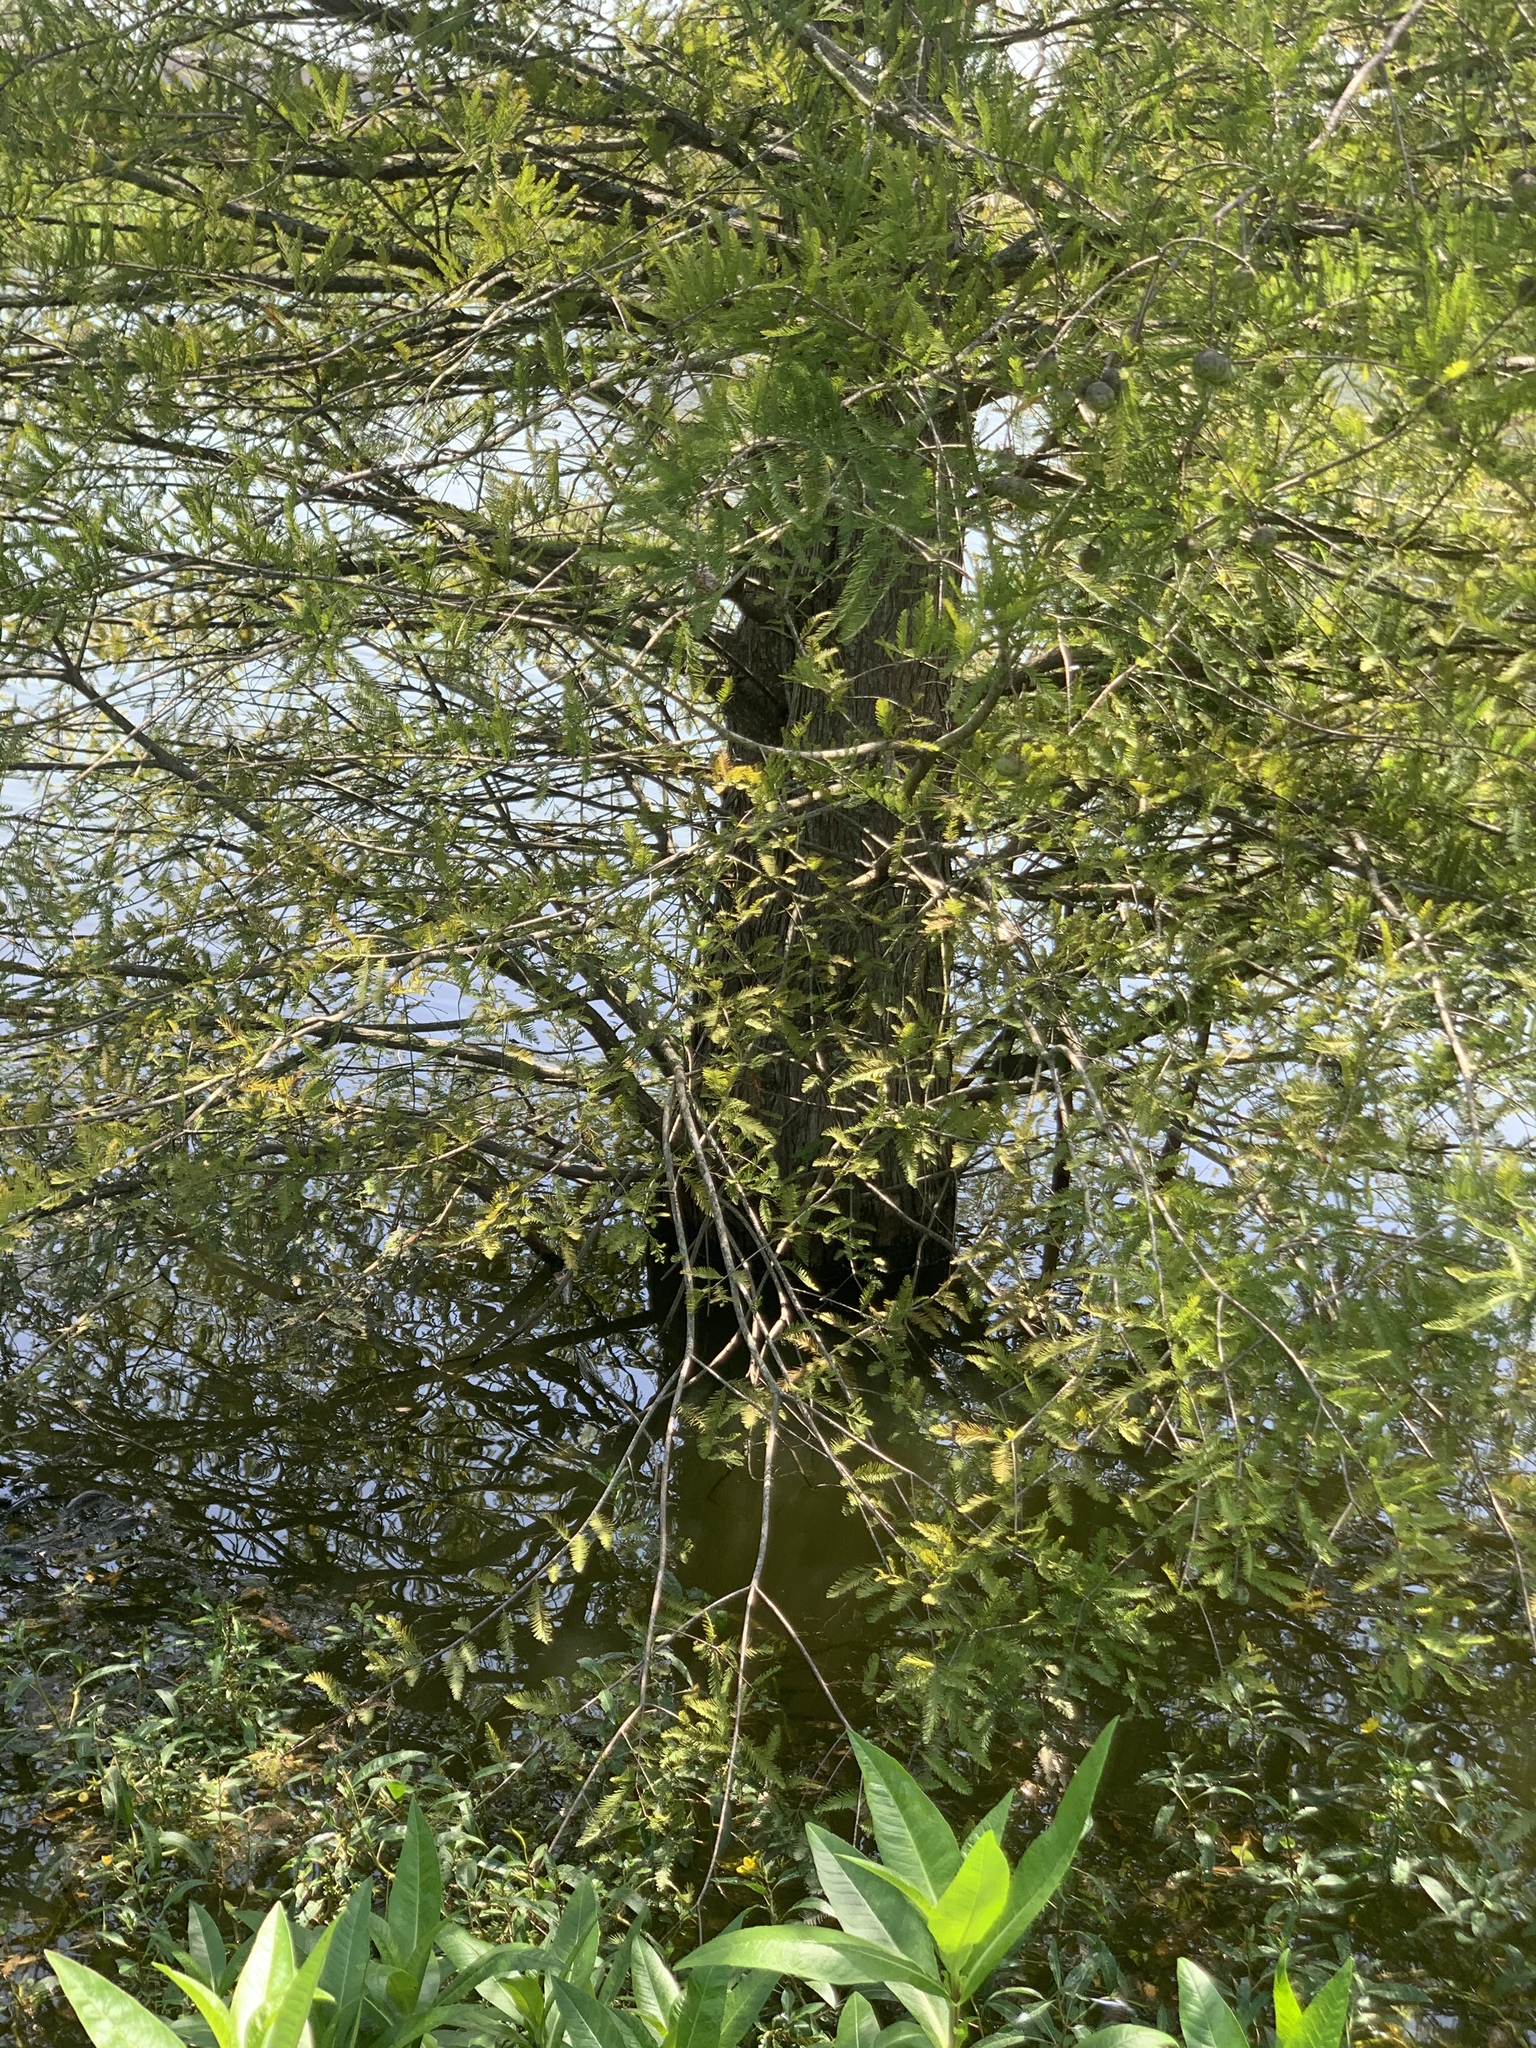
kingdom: Plantae
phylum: Tracheophyta
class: Pinopsida
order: Pinales
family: Cupressaceae
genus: Taxodium
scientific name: Taxodium distichum
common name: Bald cypress
